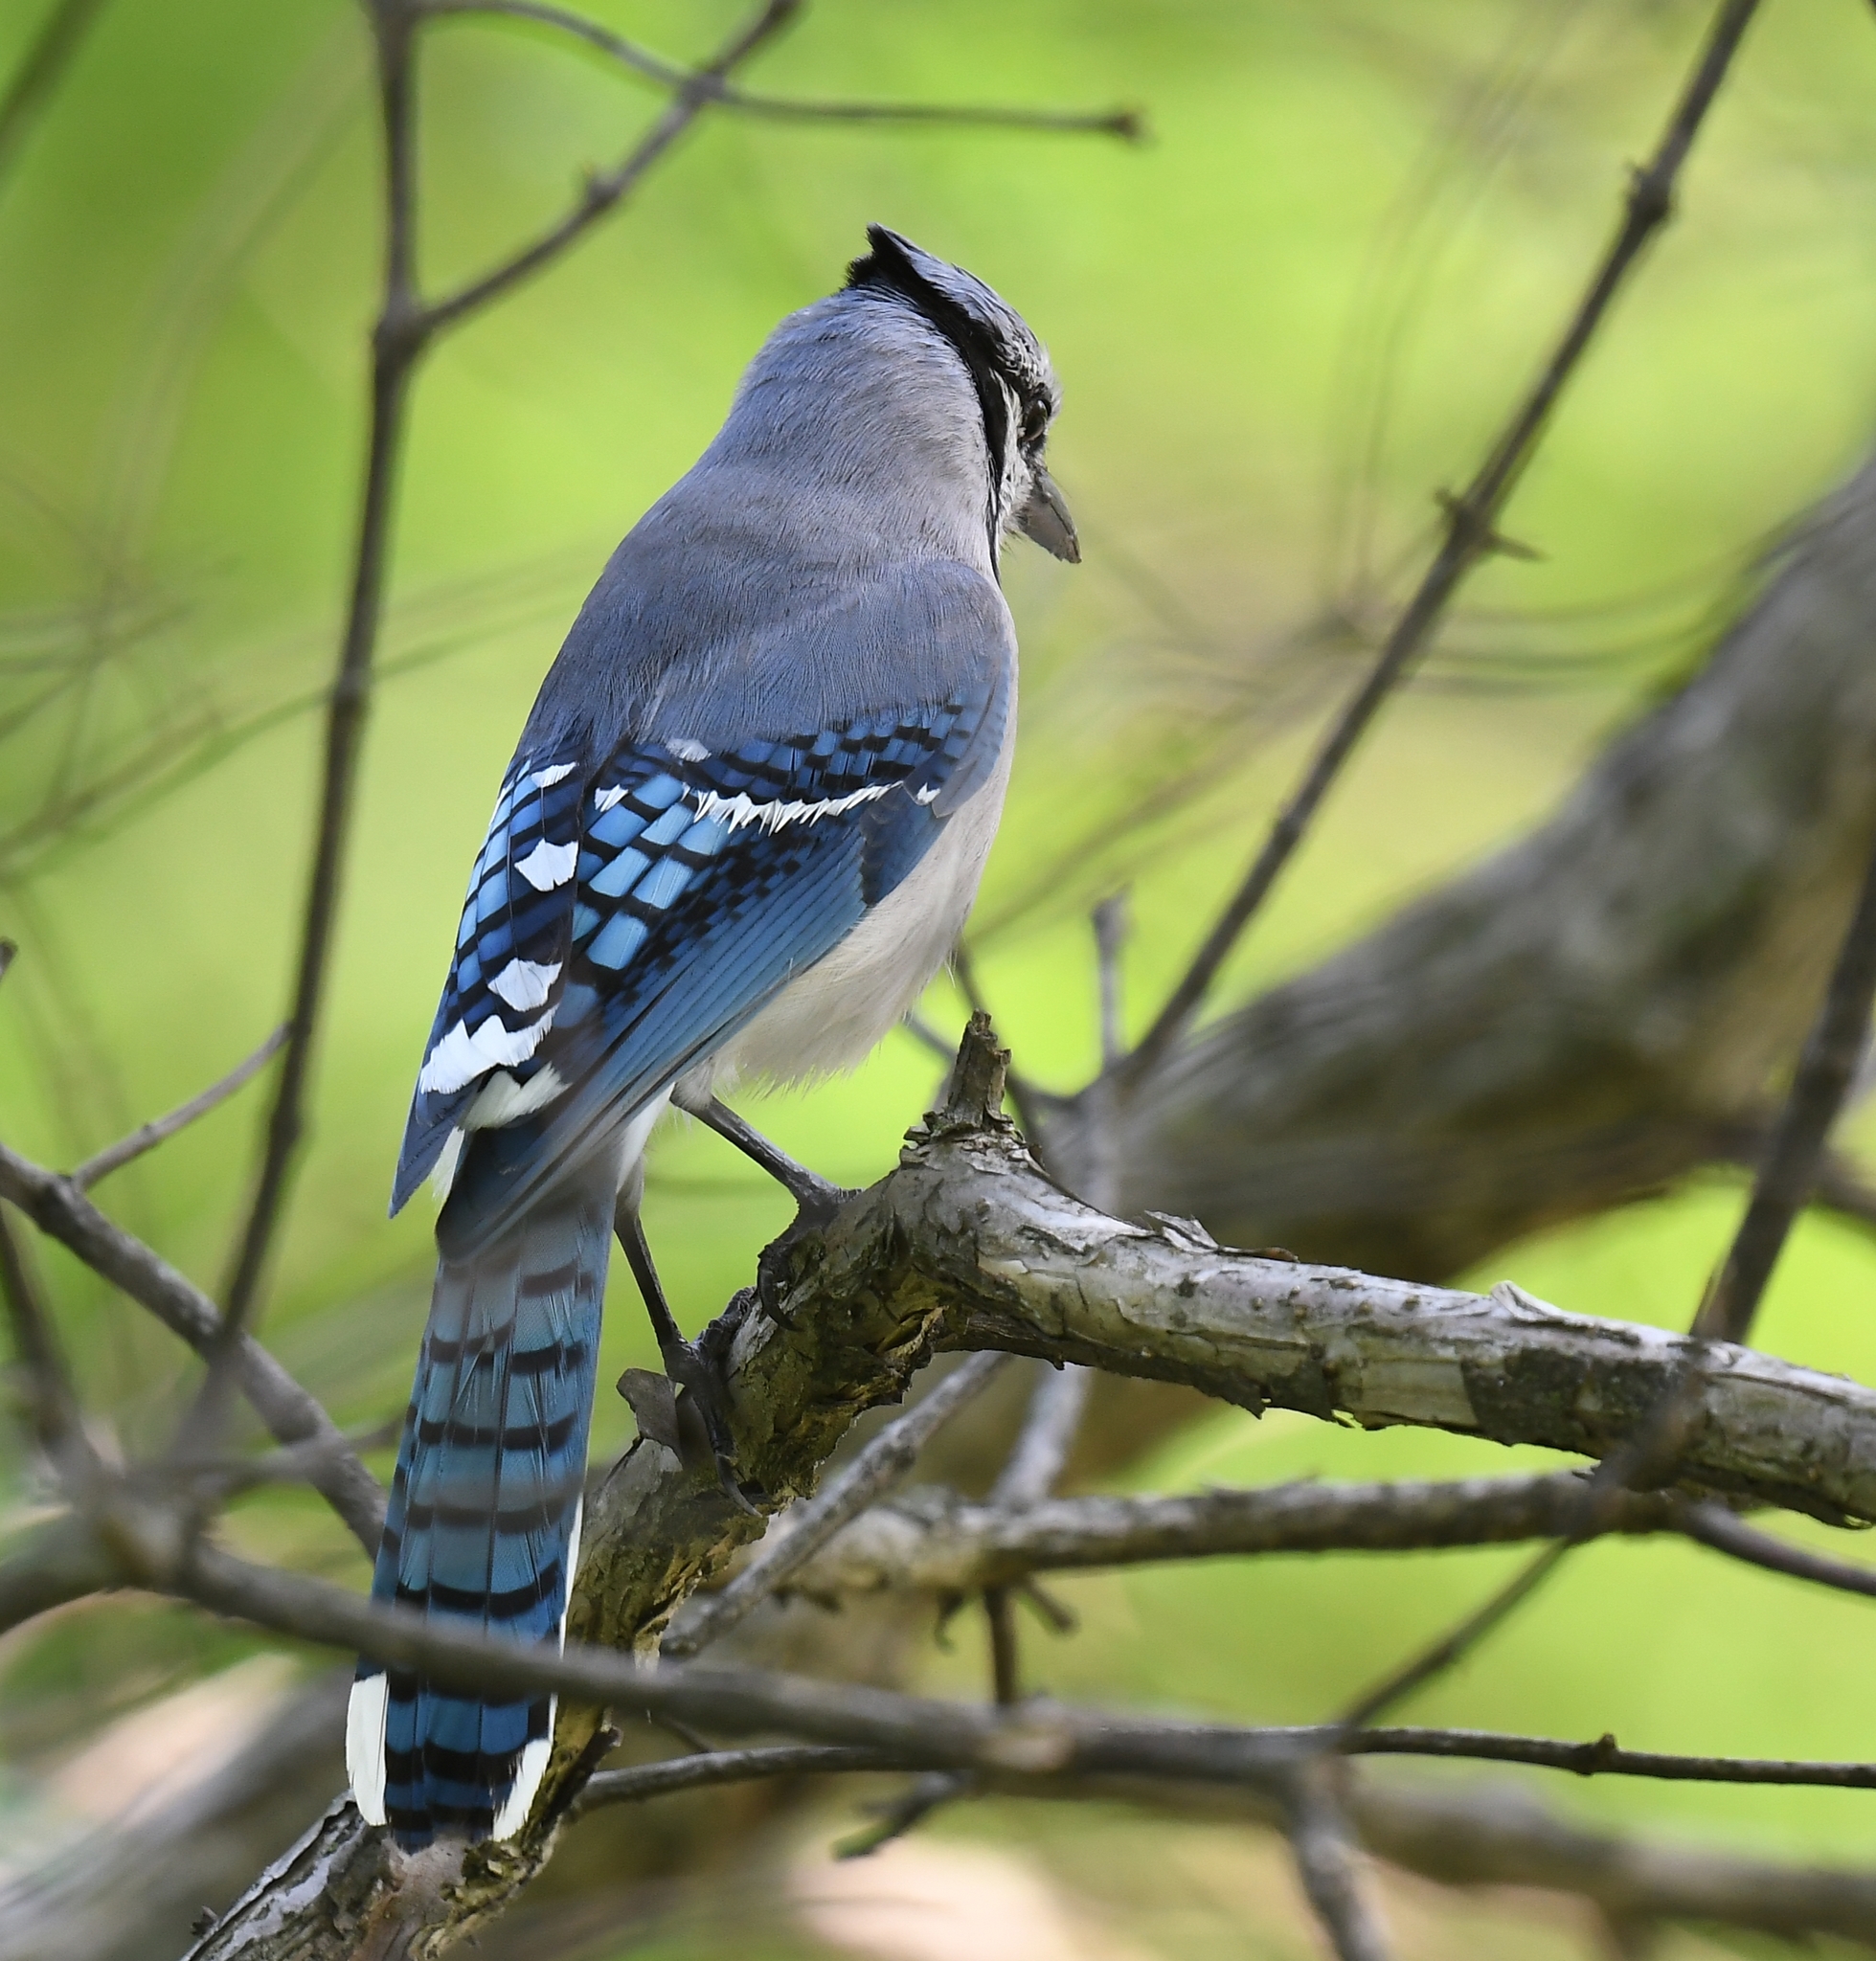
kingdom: Animalia
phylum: Chordata
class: Aves
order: Passeriformes
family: Corvidae
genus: Cyanocitta
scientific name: Cyanocitta cristata
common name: Blue jay
